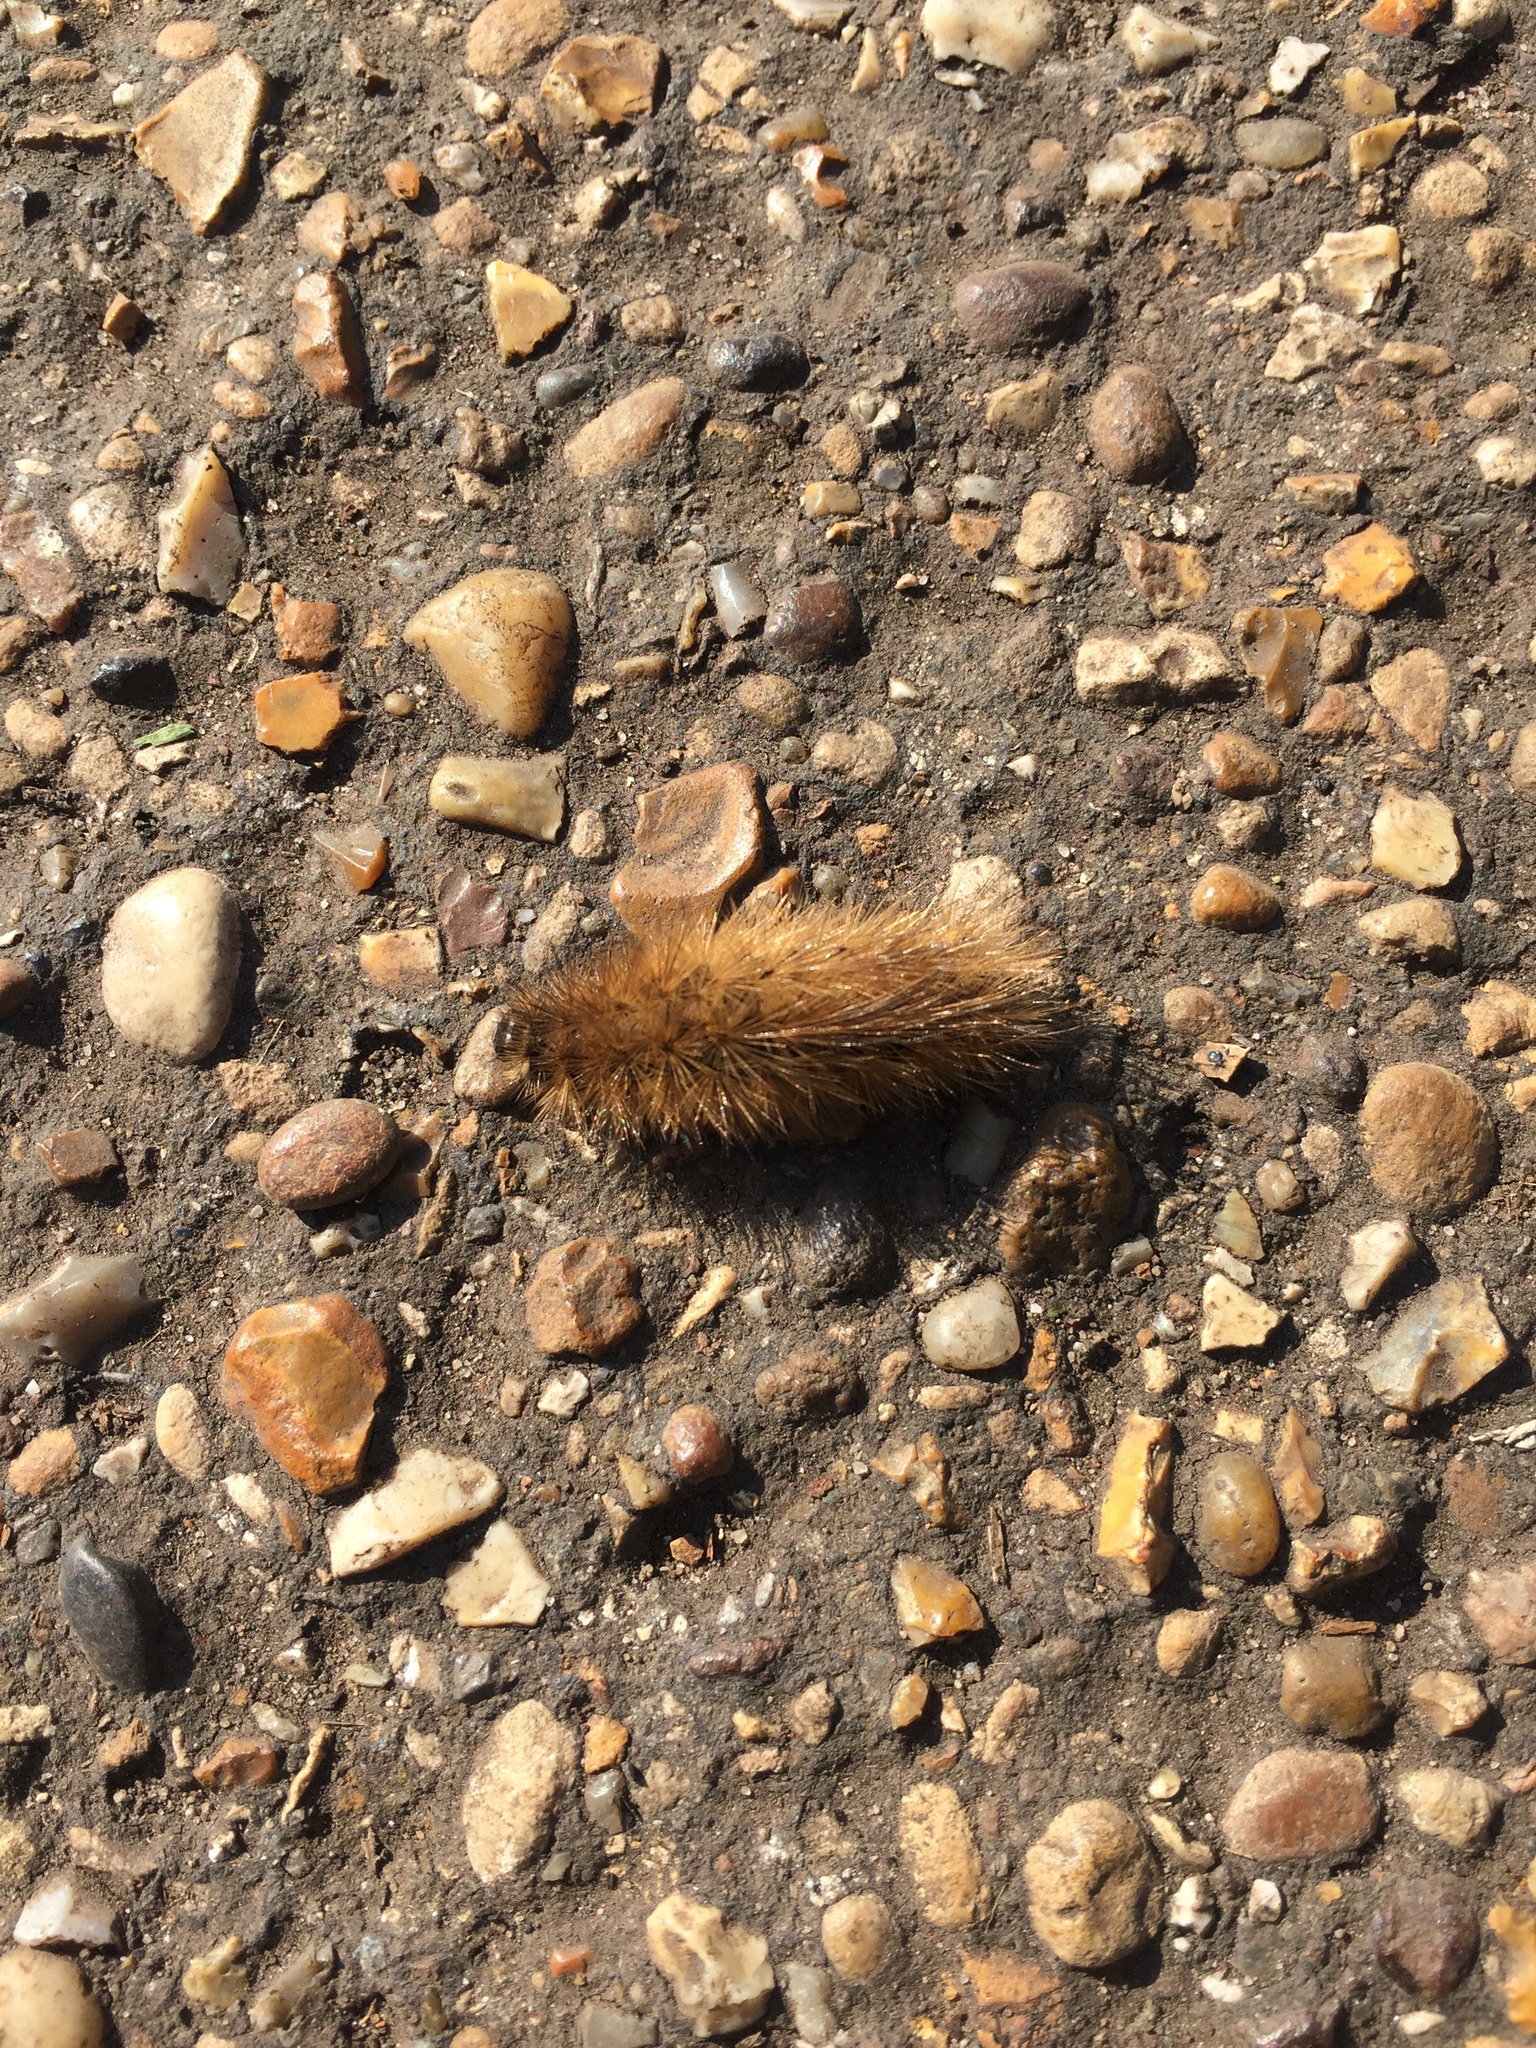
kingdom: Animalia
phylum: Arthropoda
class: Insecta
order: Lepidoptera
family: Erebidae
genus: Phragmatobia
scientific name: Phragmatobia fuliginosa
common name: Ruby tiger
